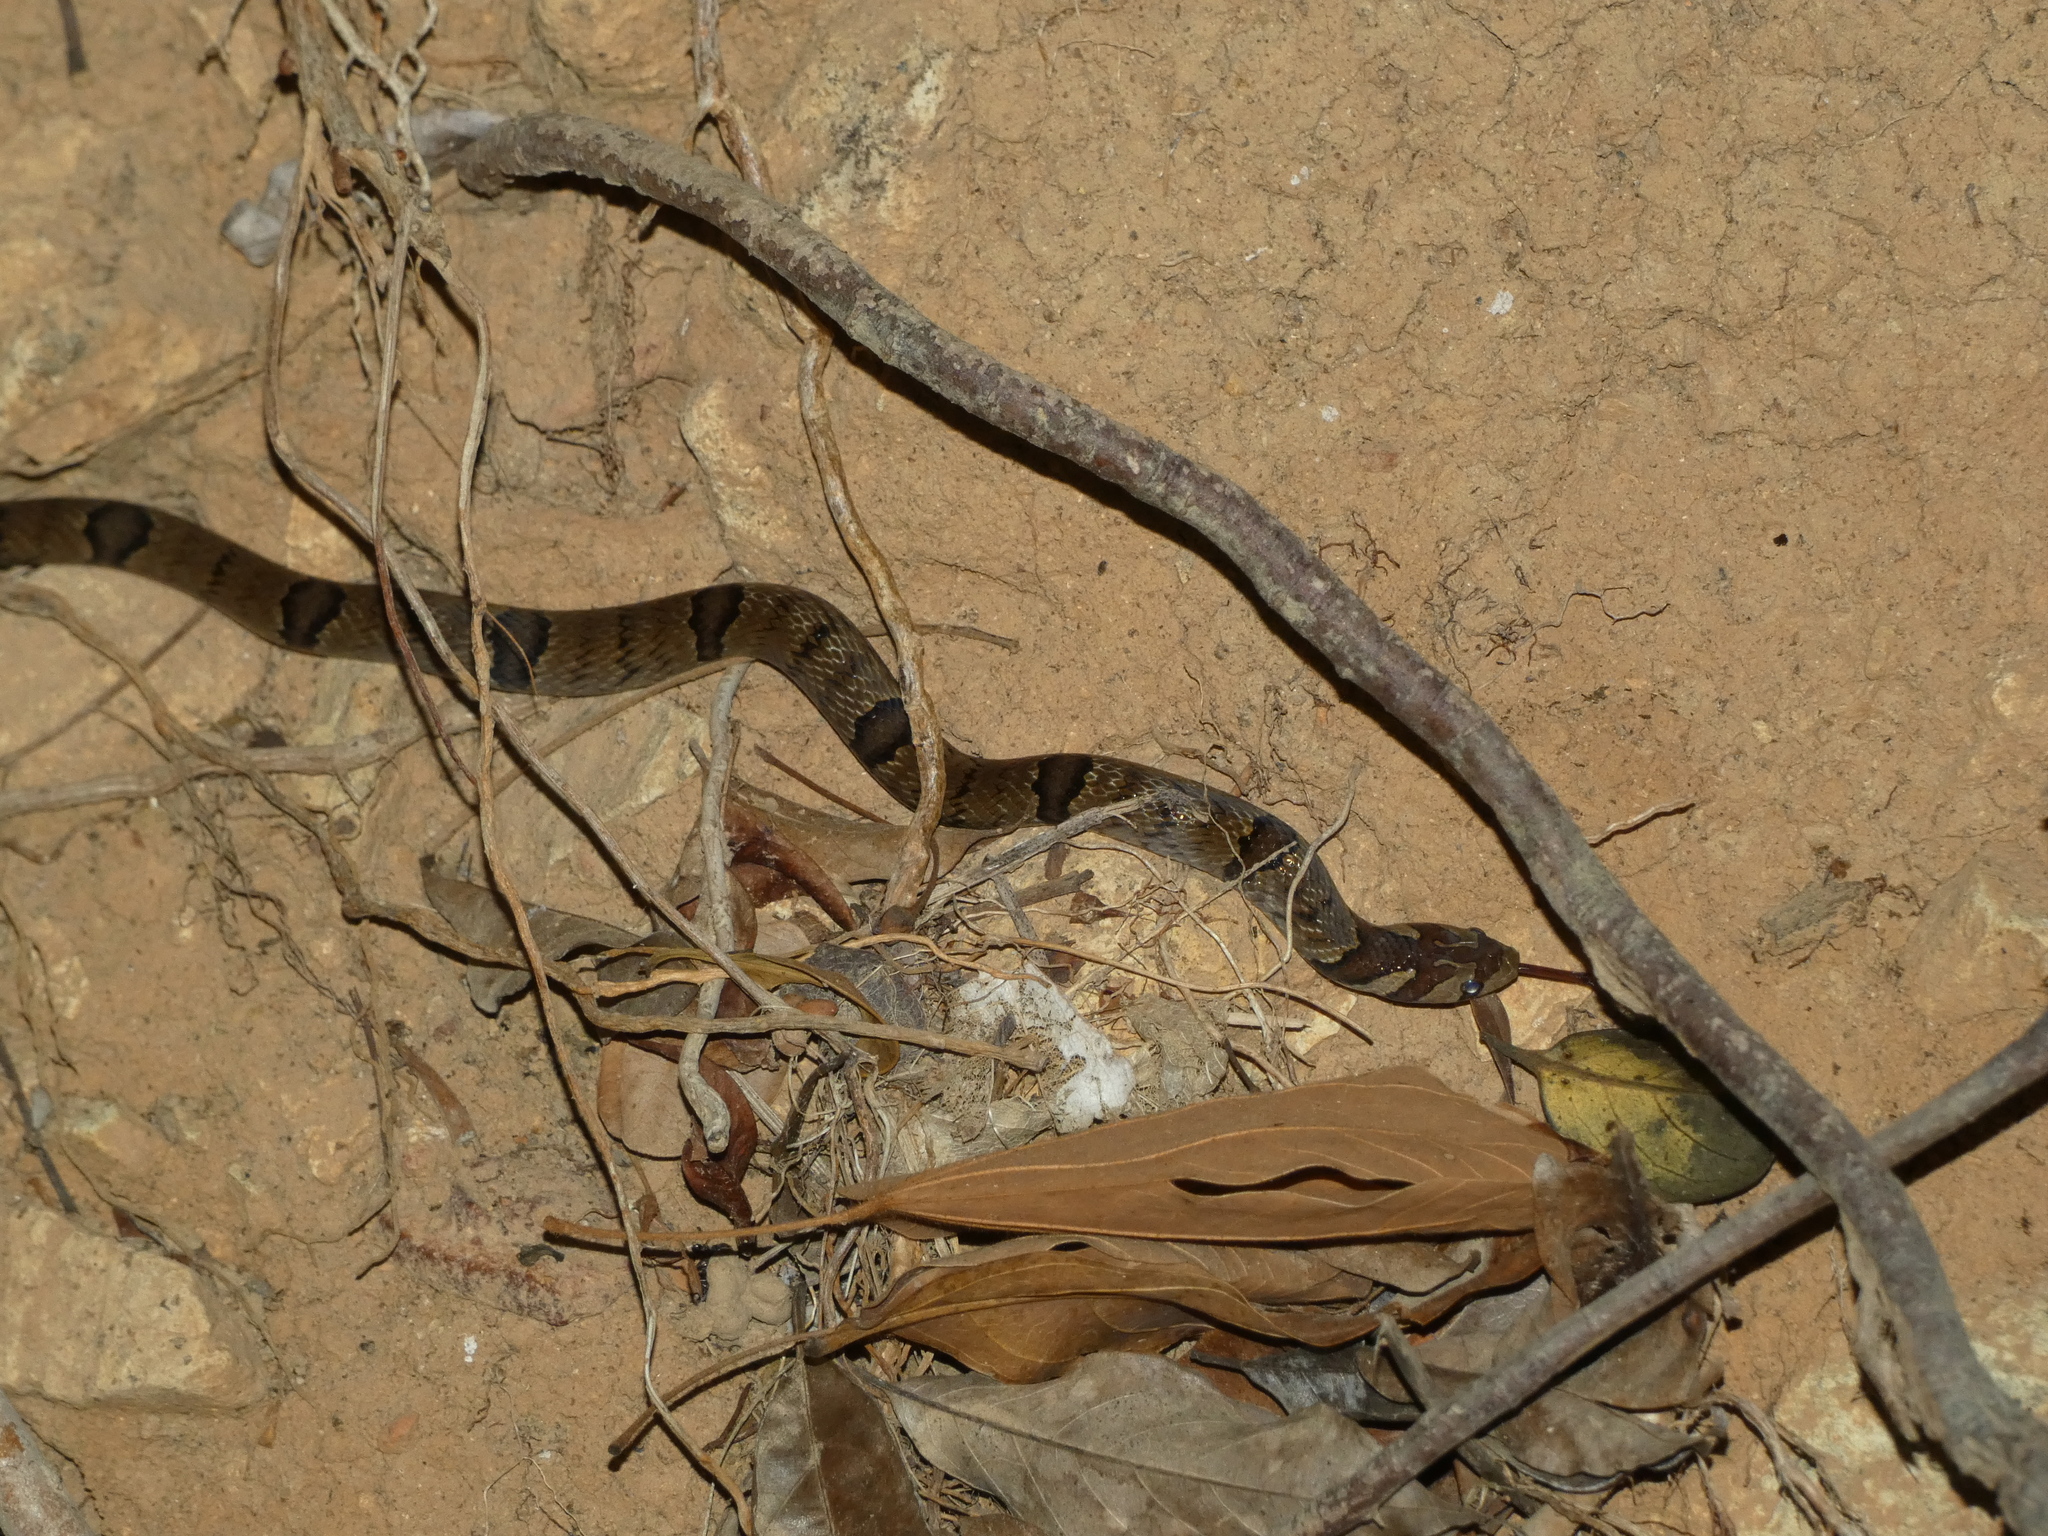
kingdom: Animalia
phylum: Chordata
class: Squamata
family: Colubridae
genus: Oligodon
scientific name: Oligodon fasciolatus
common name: Fasciolated kukri snake
